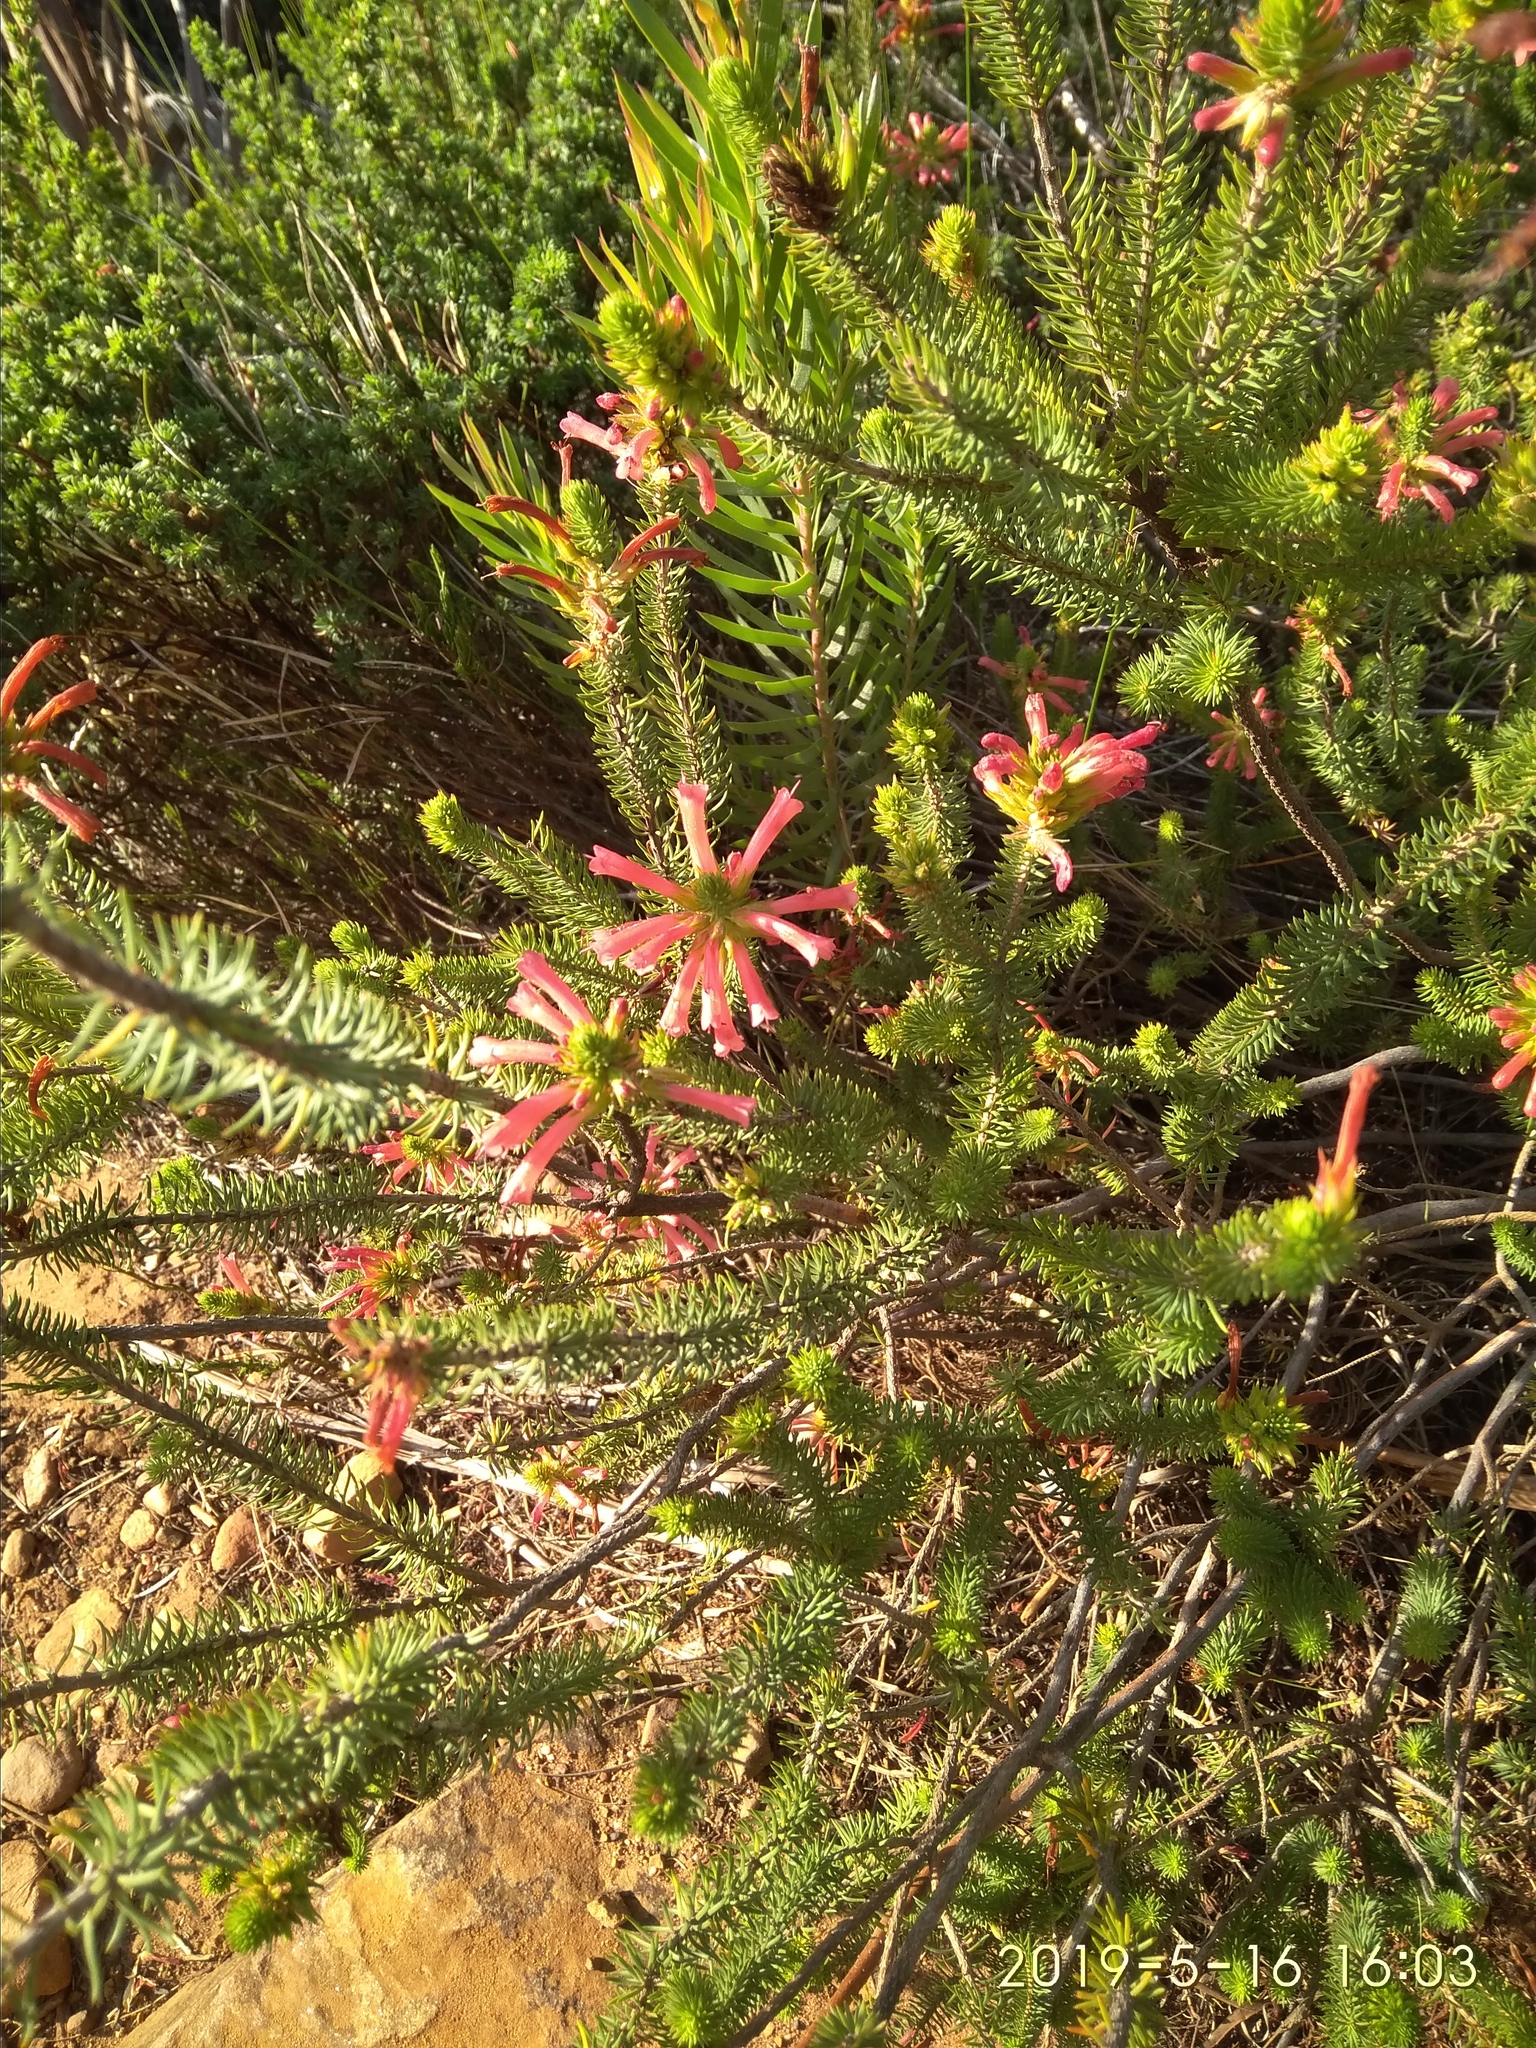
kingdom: Plantae
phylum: Tracheophyta
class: Magnoliopsida
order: Ericales
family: Ericaceae
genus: Erica
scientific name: Erica abietina
